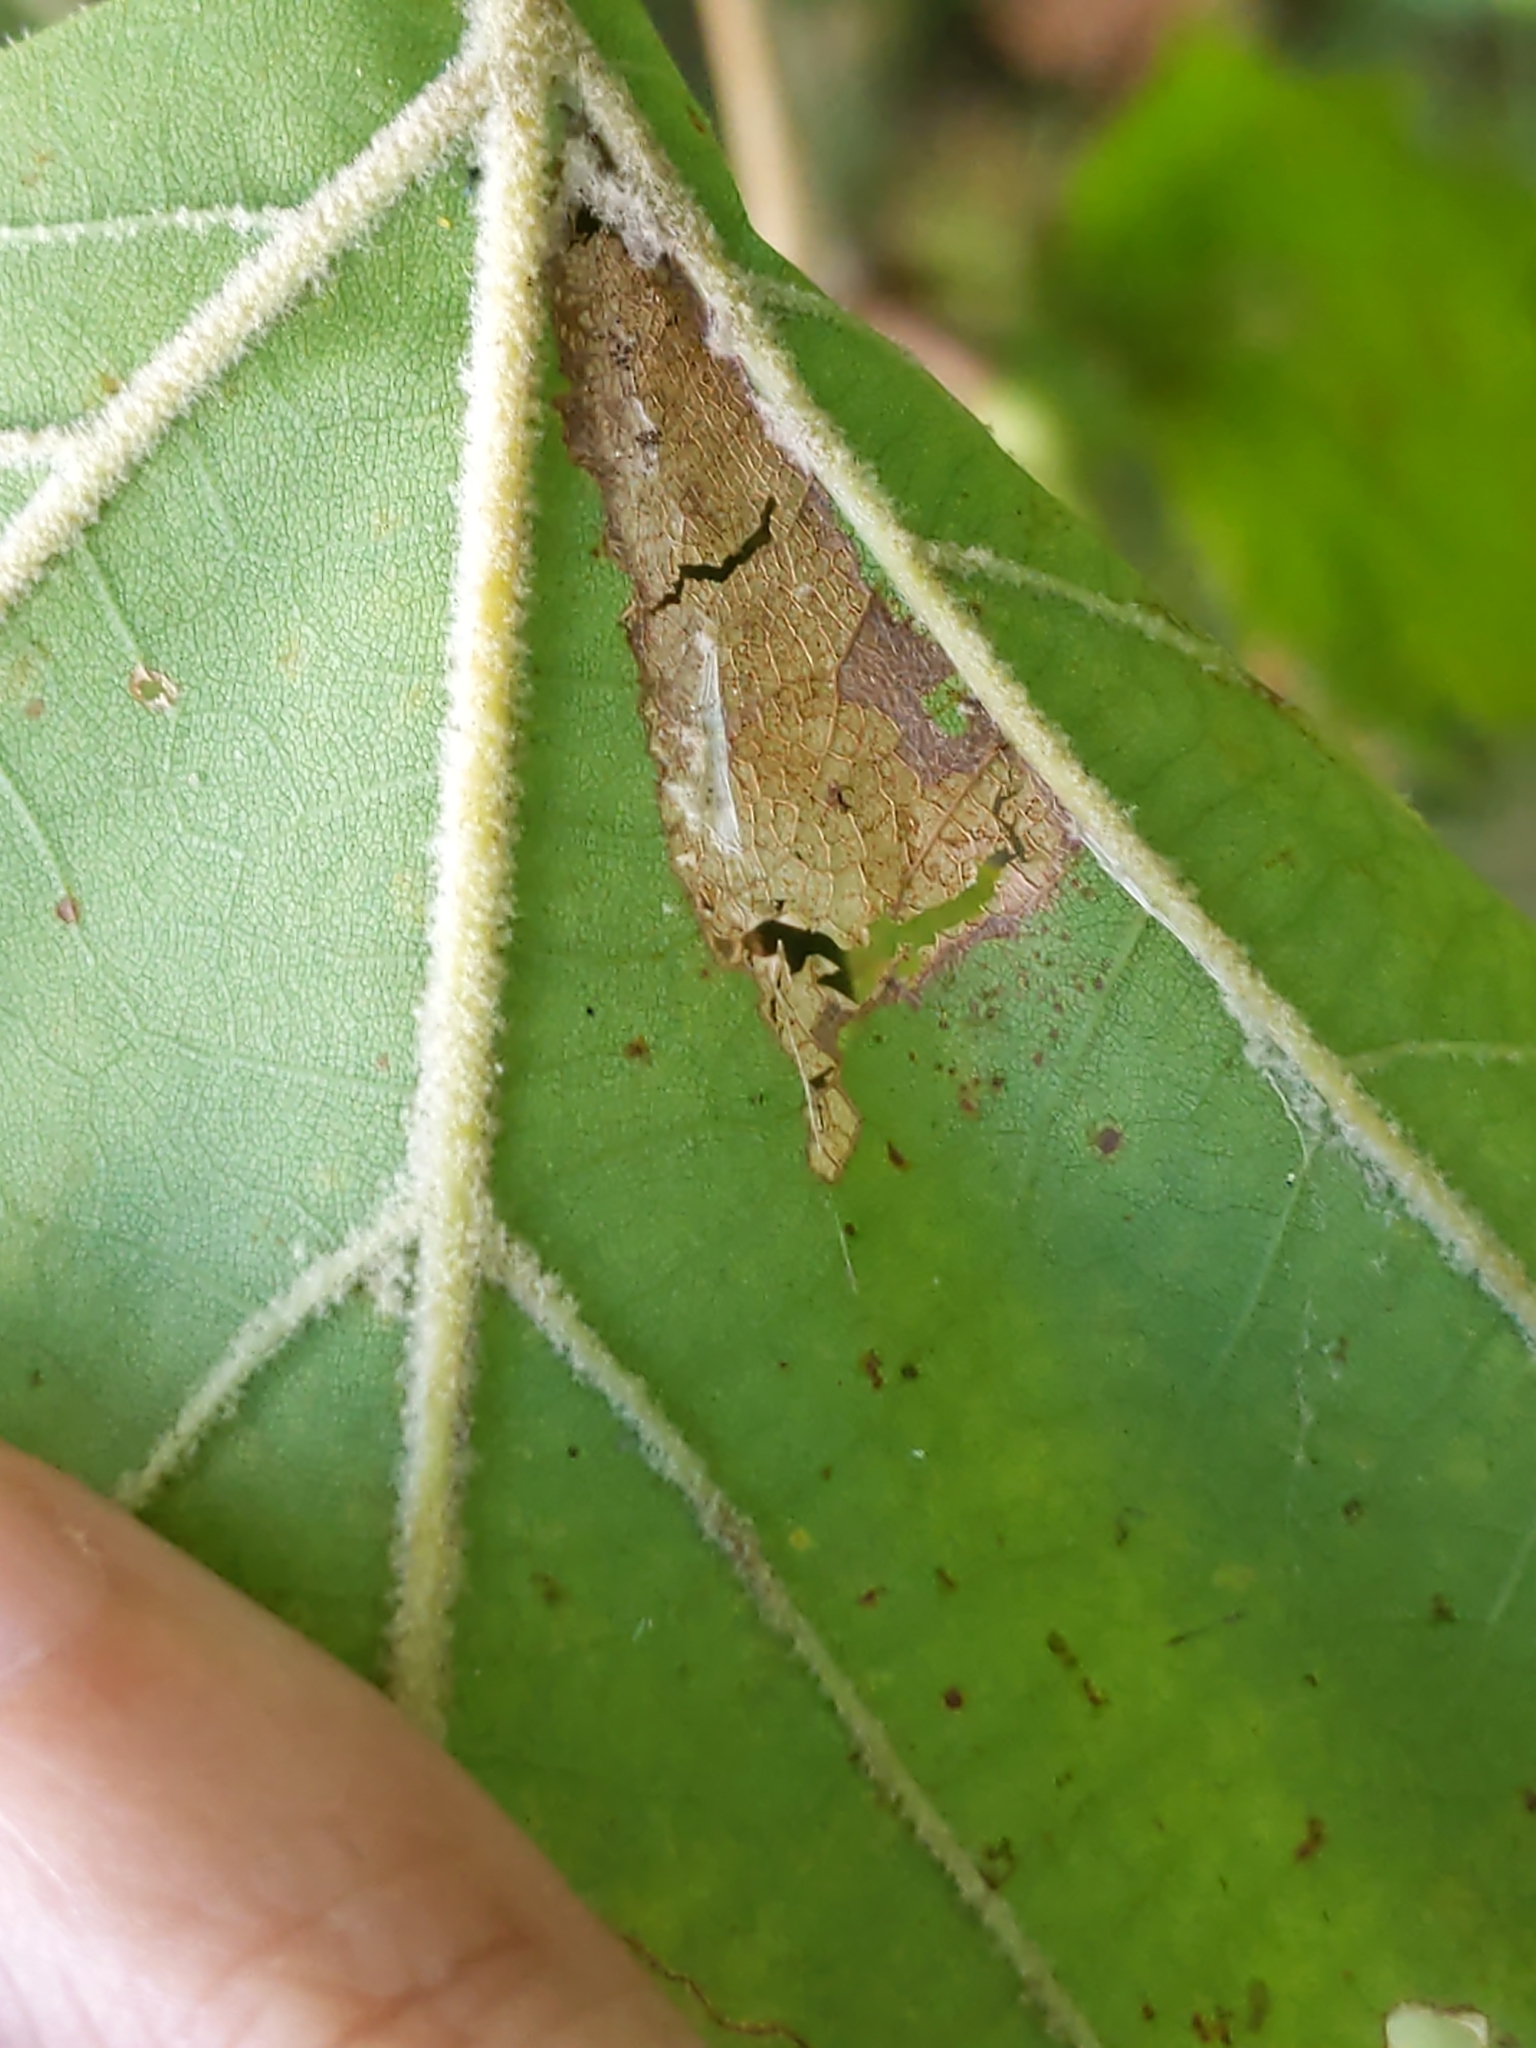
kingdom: Animalia
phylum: Arthropoda
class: Insecta
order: Lepidoptera
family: Tortricidae
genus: Ancylis
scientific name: Ancylis platanana
